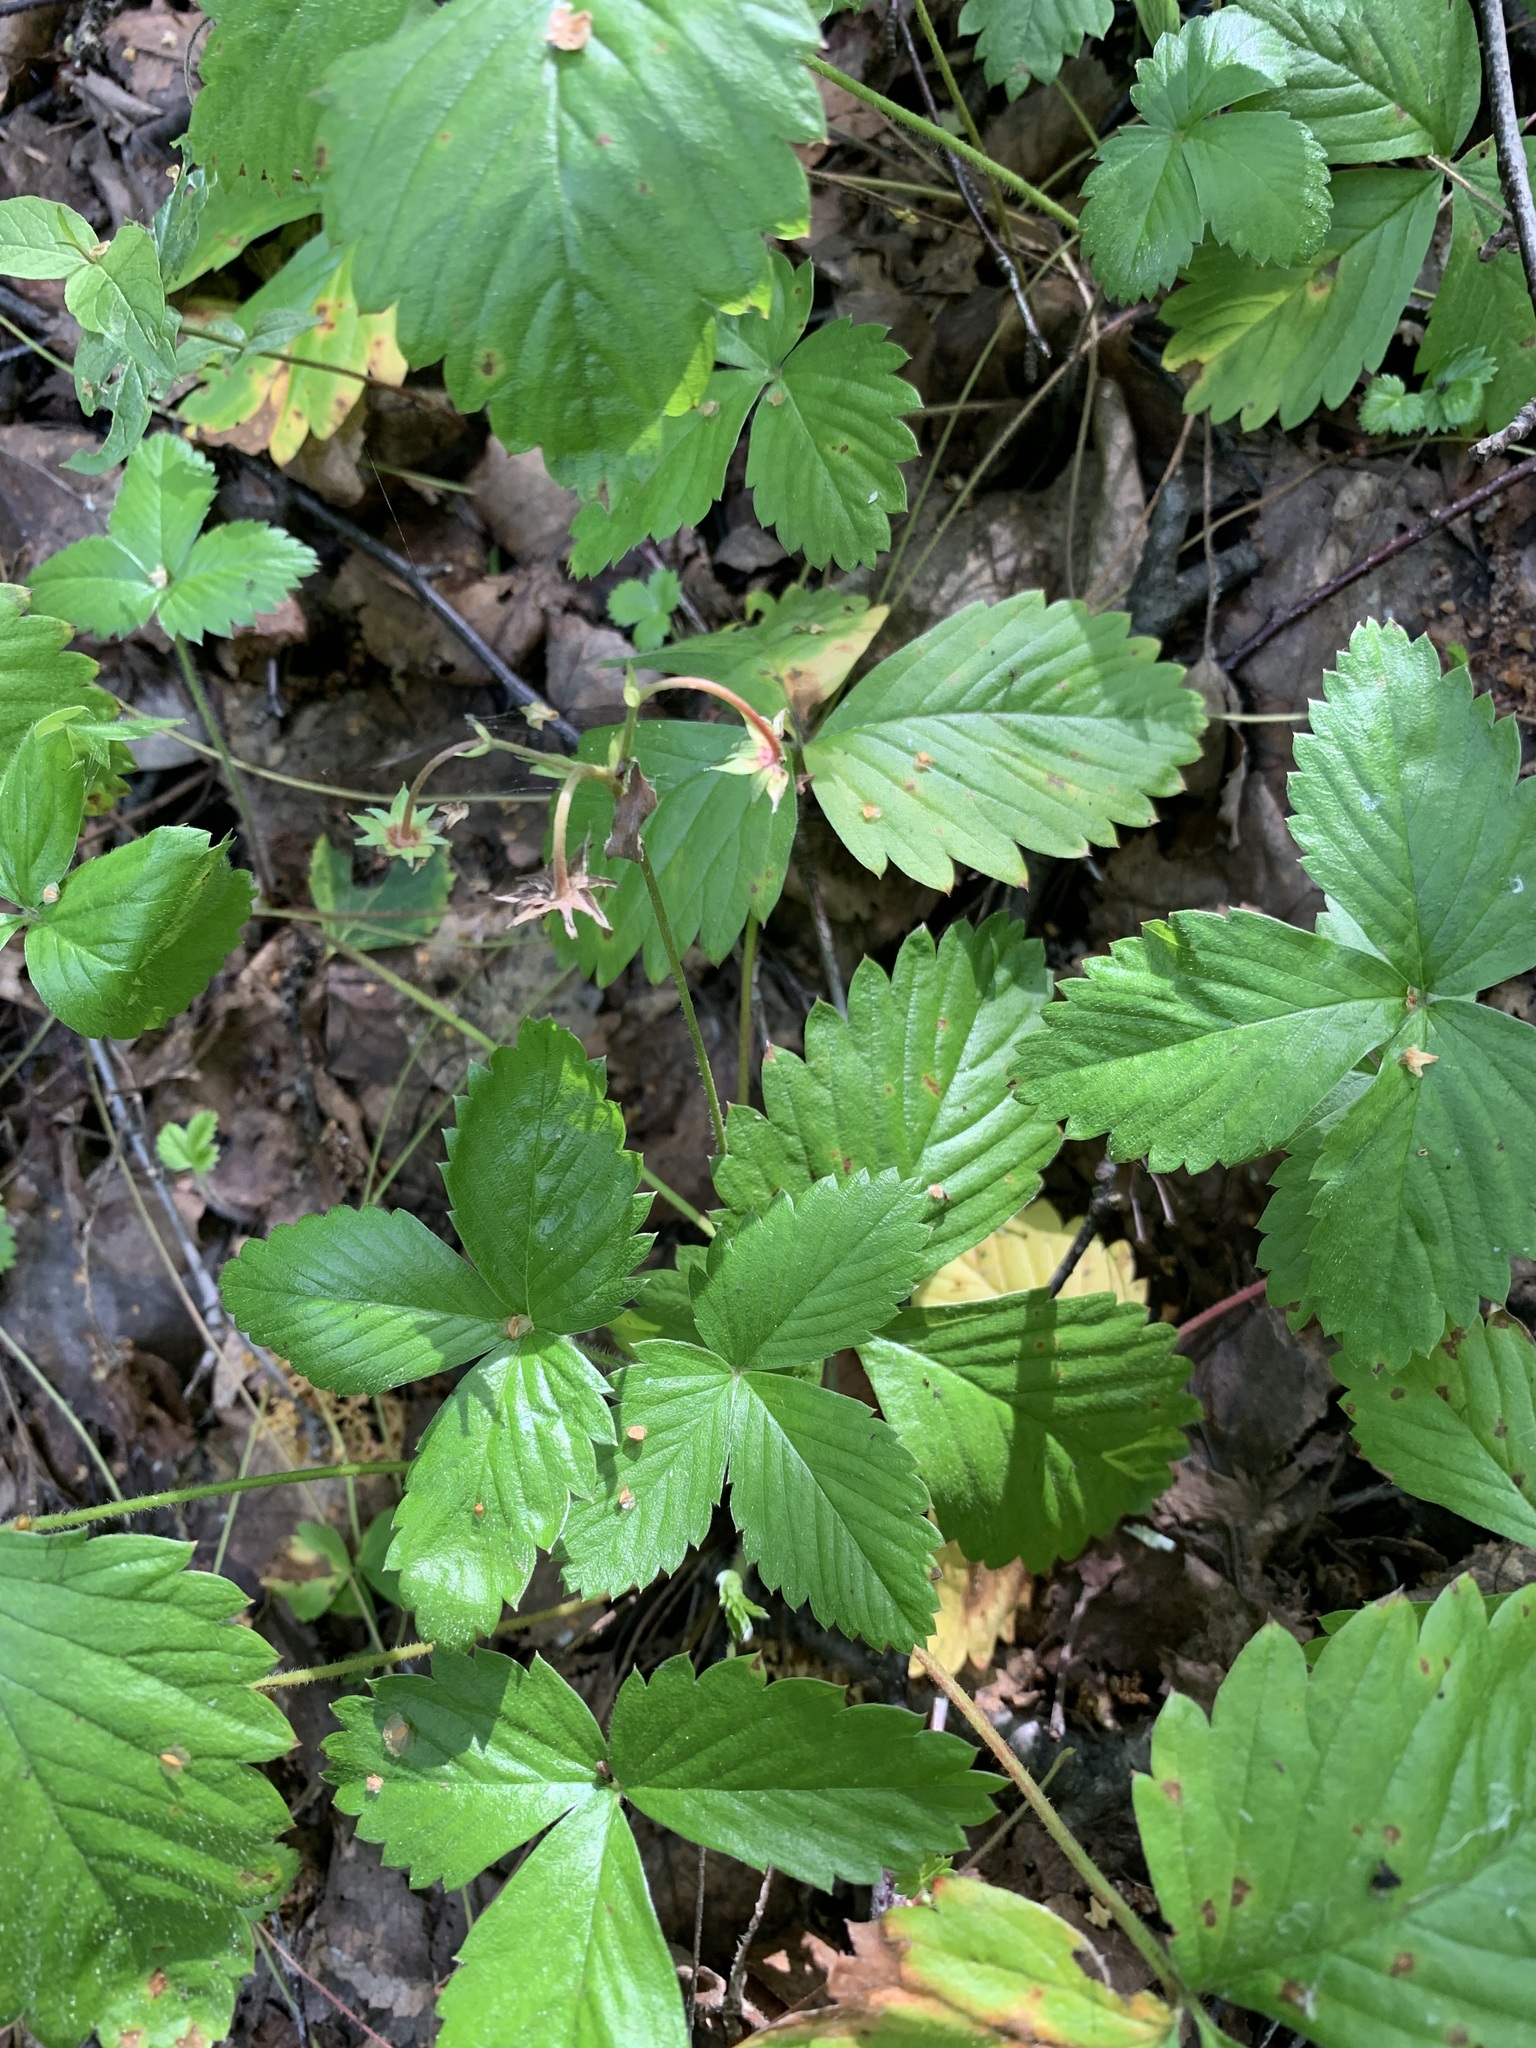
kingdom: Plantae
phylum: Tracheophyta
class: Magnoliopsida
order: Rosales
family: Rosaceae
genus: Fragaria
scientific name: Fragaria vesca
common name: Wild strawberry
